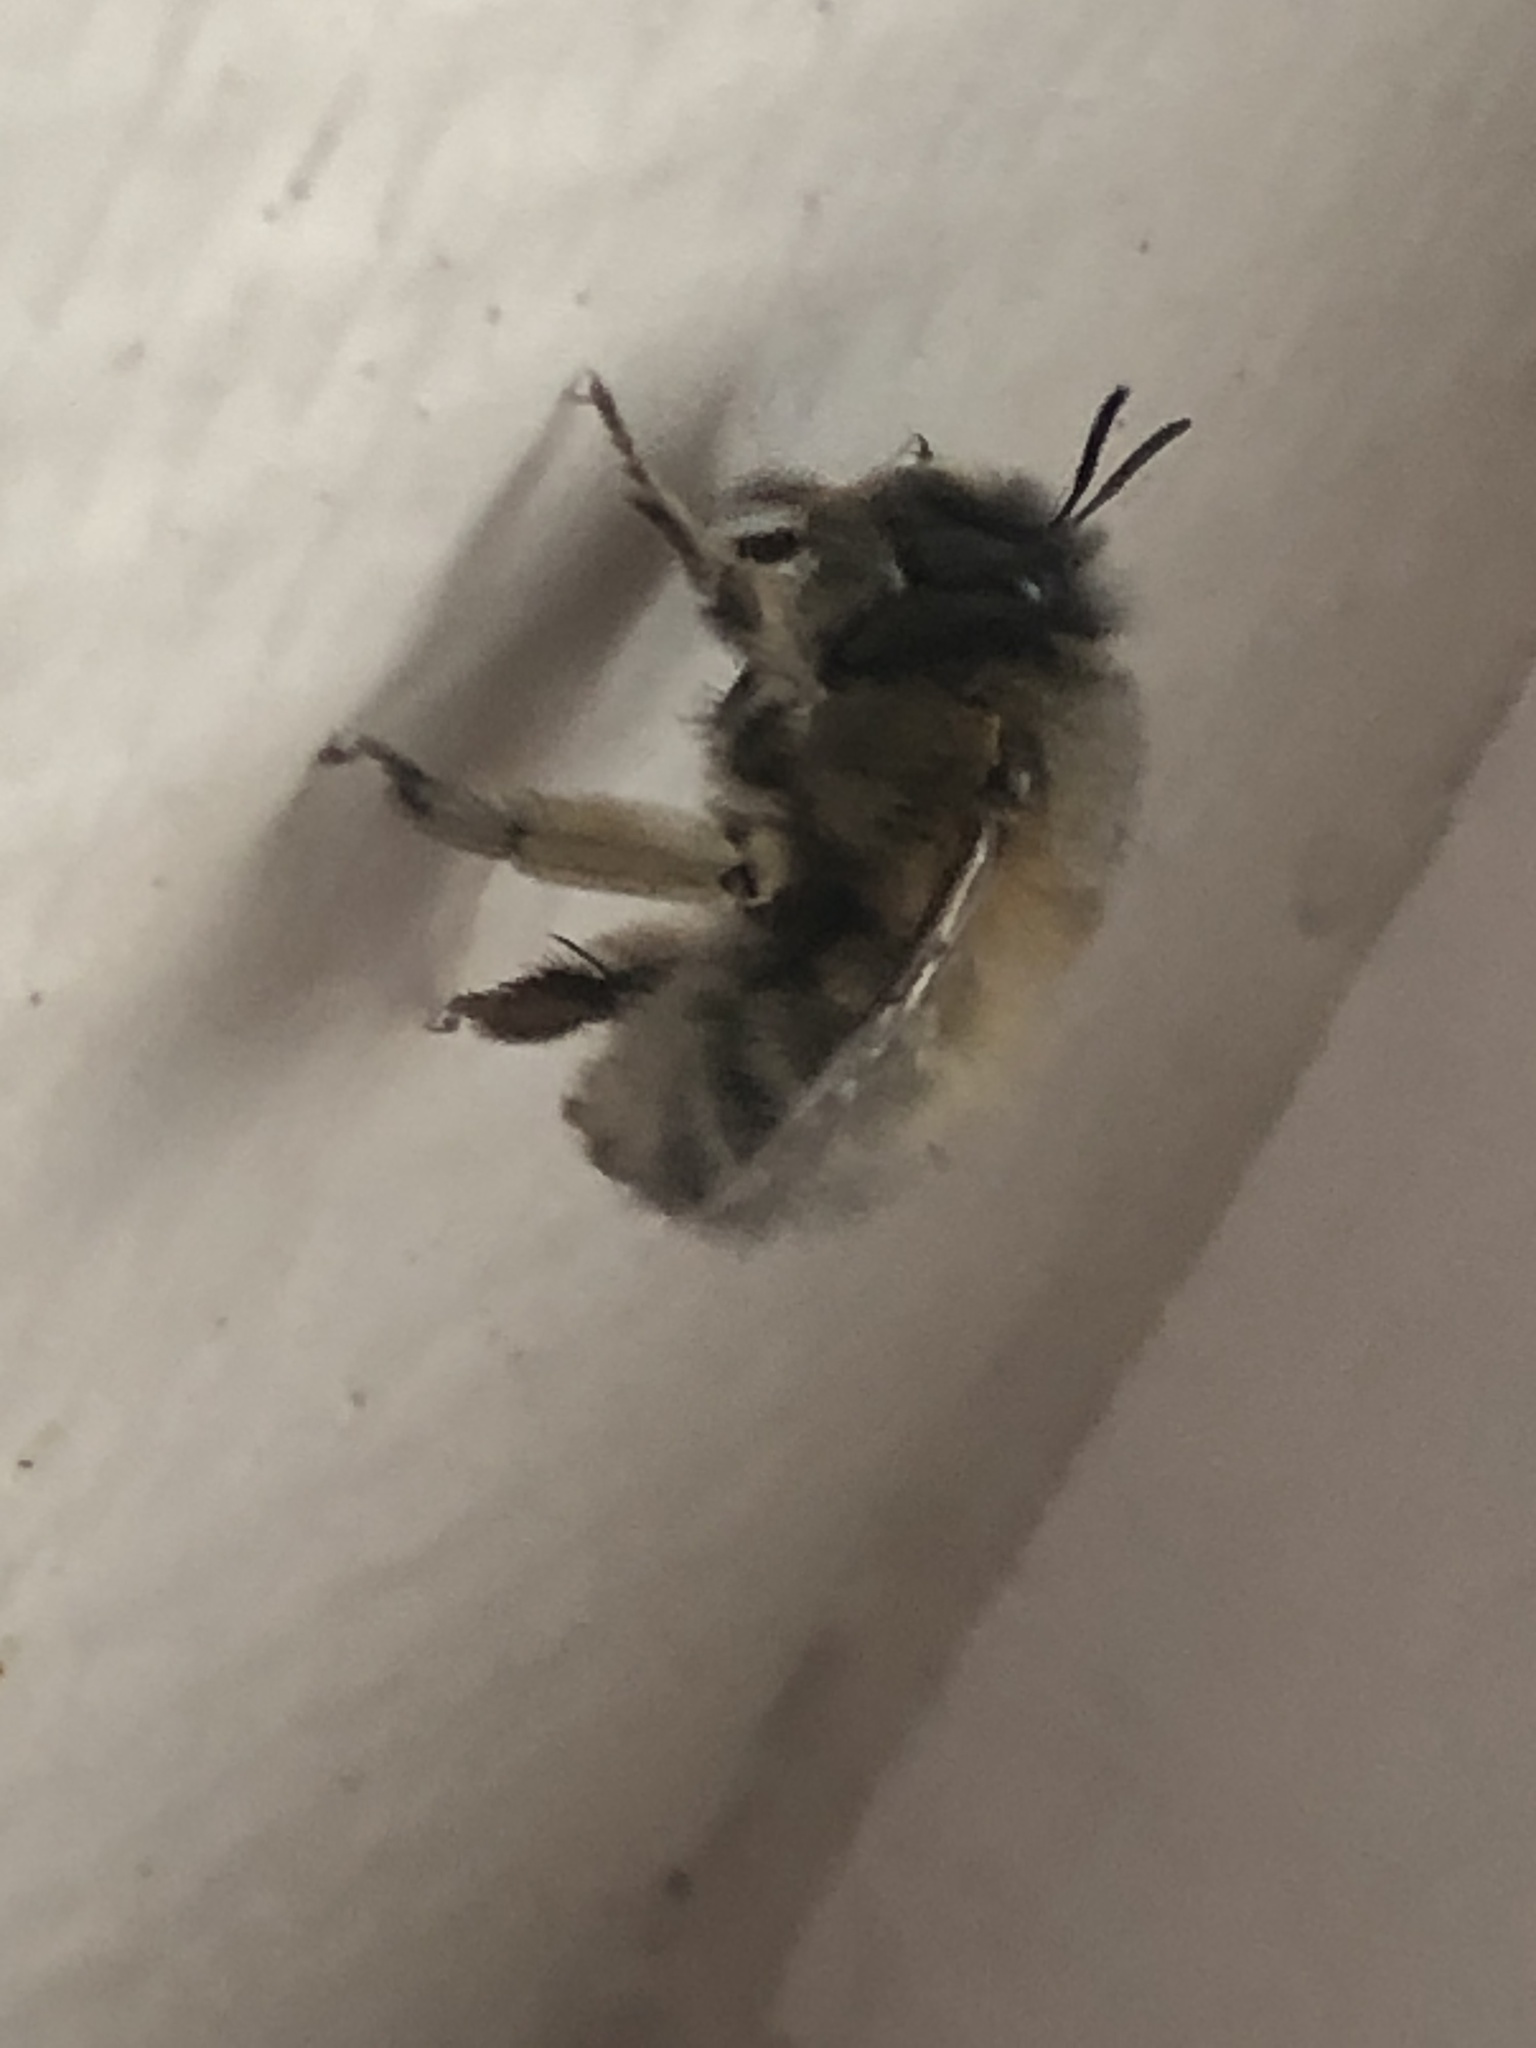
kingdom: Animalia
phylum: Arthropoda
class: Insecta
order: Hymenoptera
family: Apidae
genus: Anthophora
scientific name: Anthophora plumipes
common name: Hairy-footed flower bee
